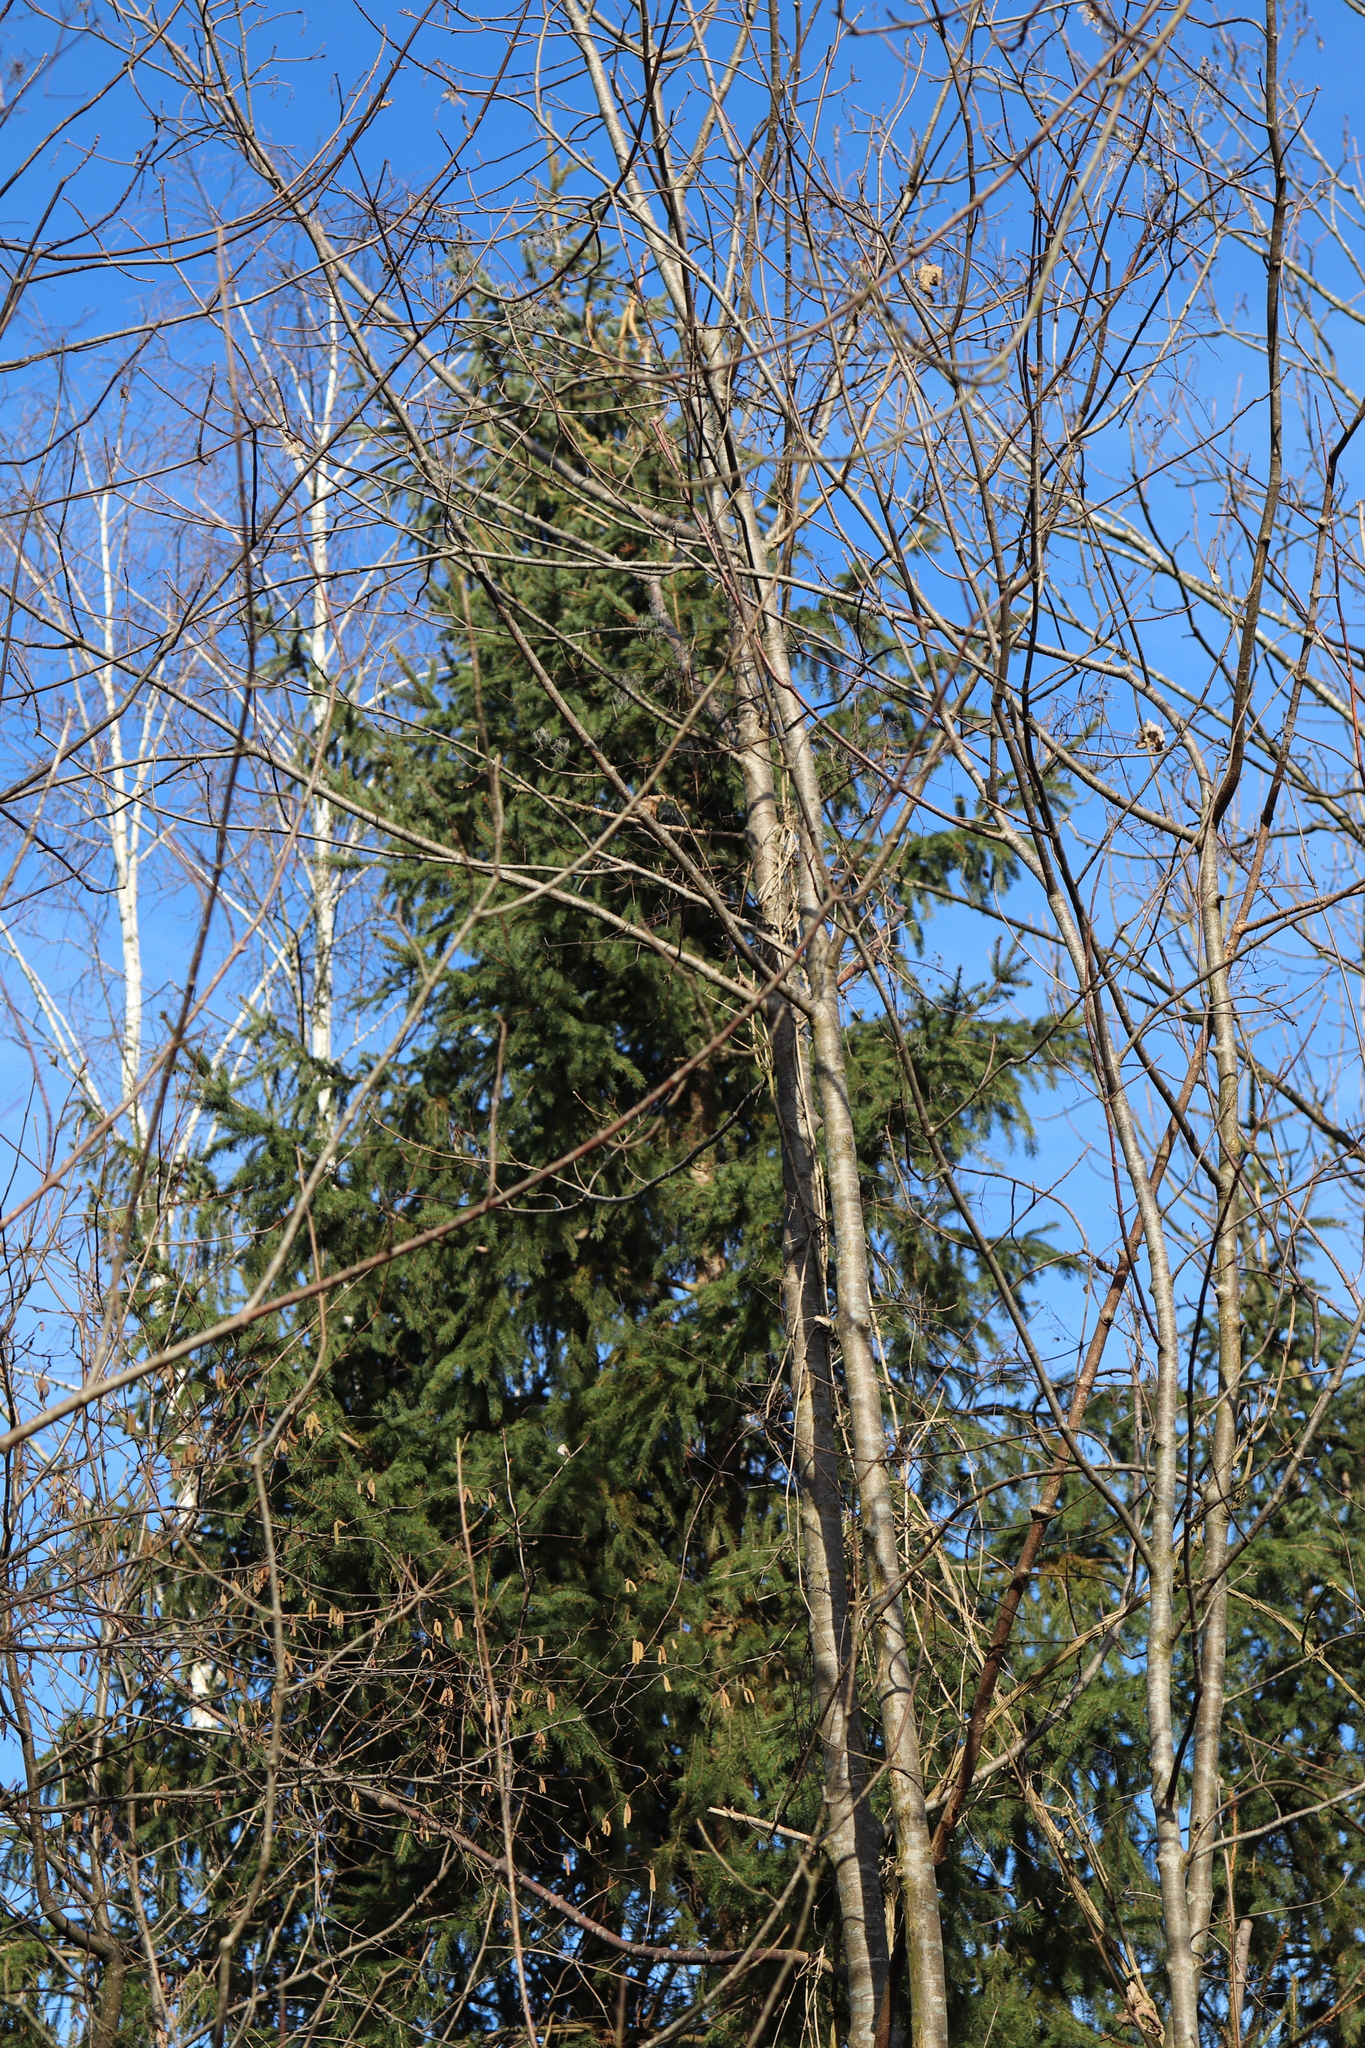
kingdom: Plantae
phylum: Tracheophyta
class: Pinopsida
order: Pinales
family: Pinaceae
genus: Picea
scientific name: Picea abies
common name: Norway spruce
